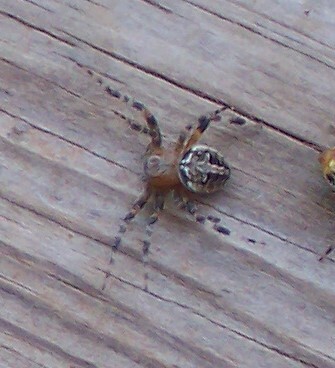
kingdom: Animalia
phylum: Arthropoda
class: Arachnida
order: Araneae
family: Araneidae
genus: Neoscona
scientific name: Neoscona oaxacensis
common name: Orb weavers
